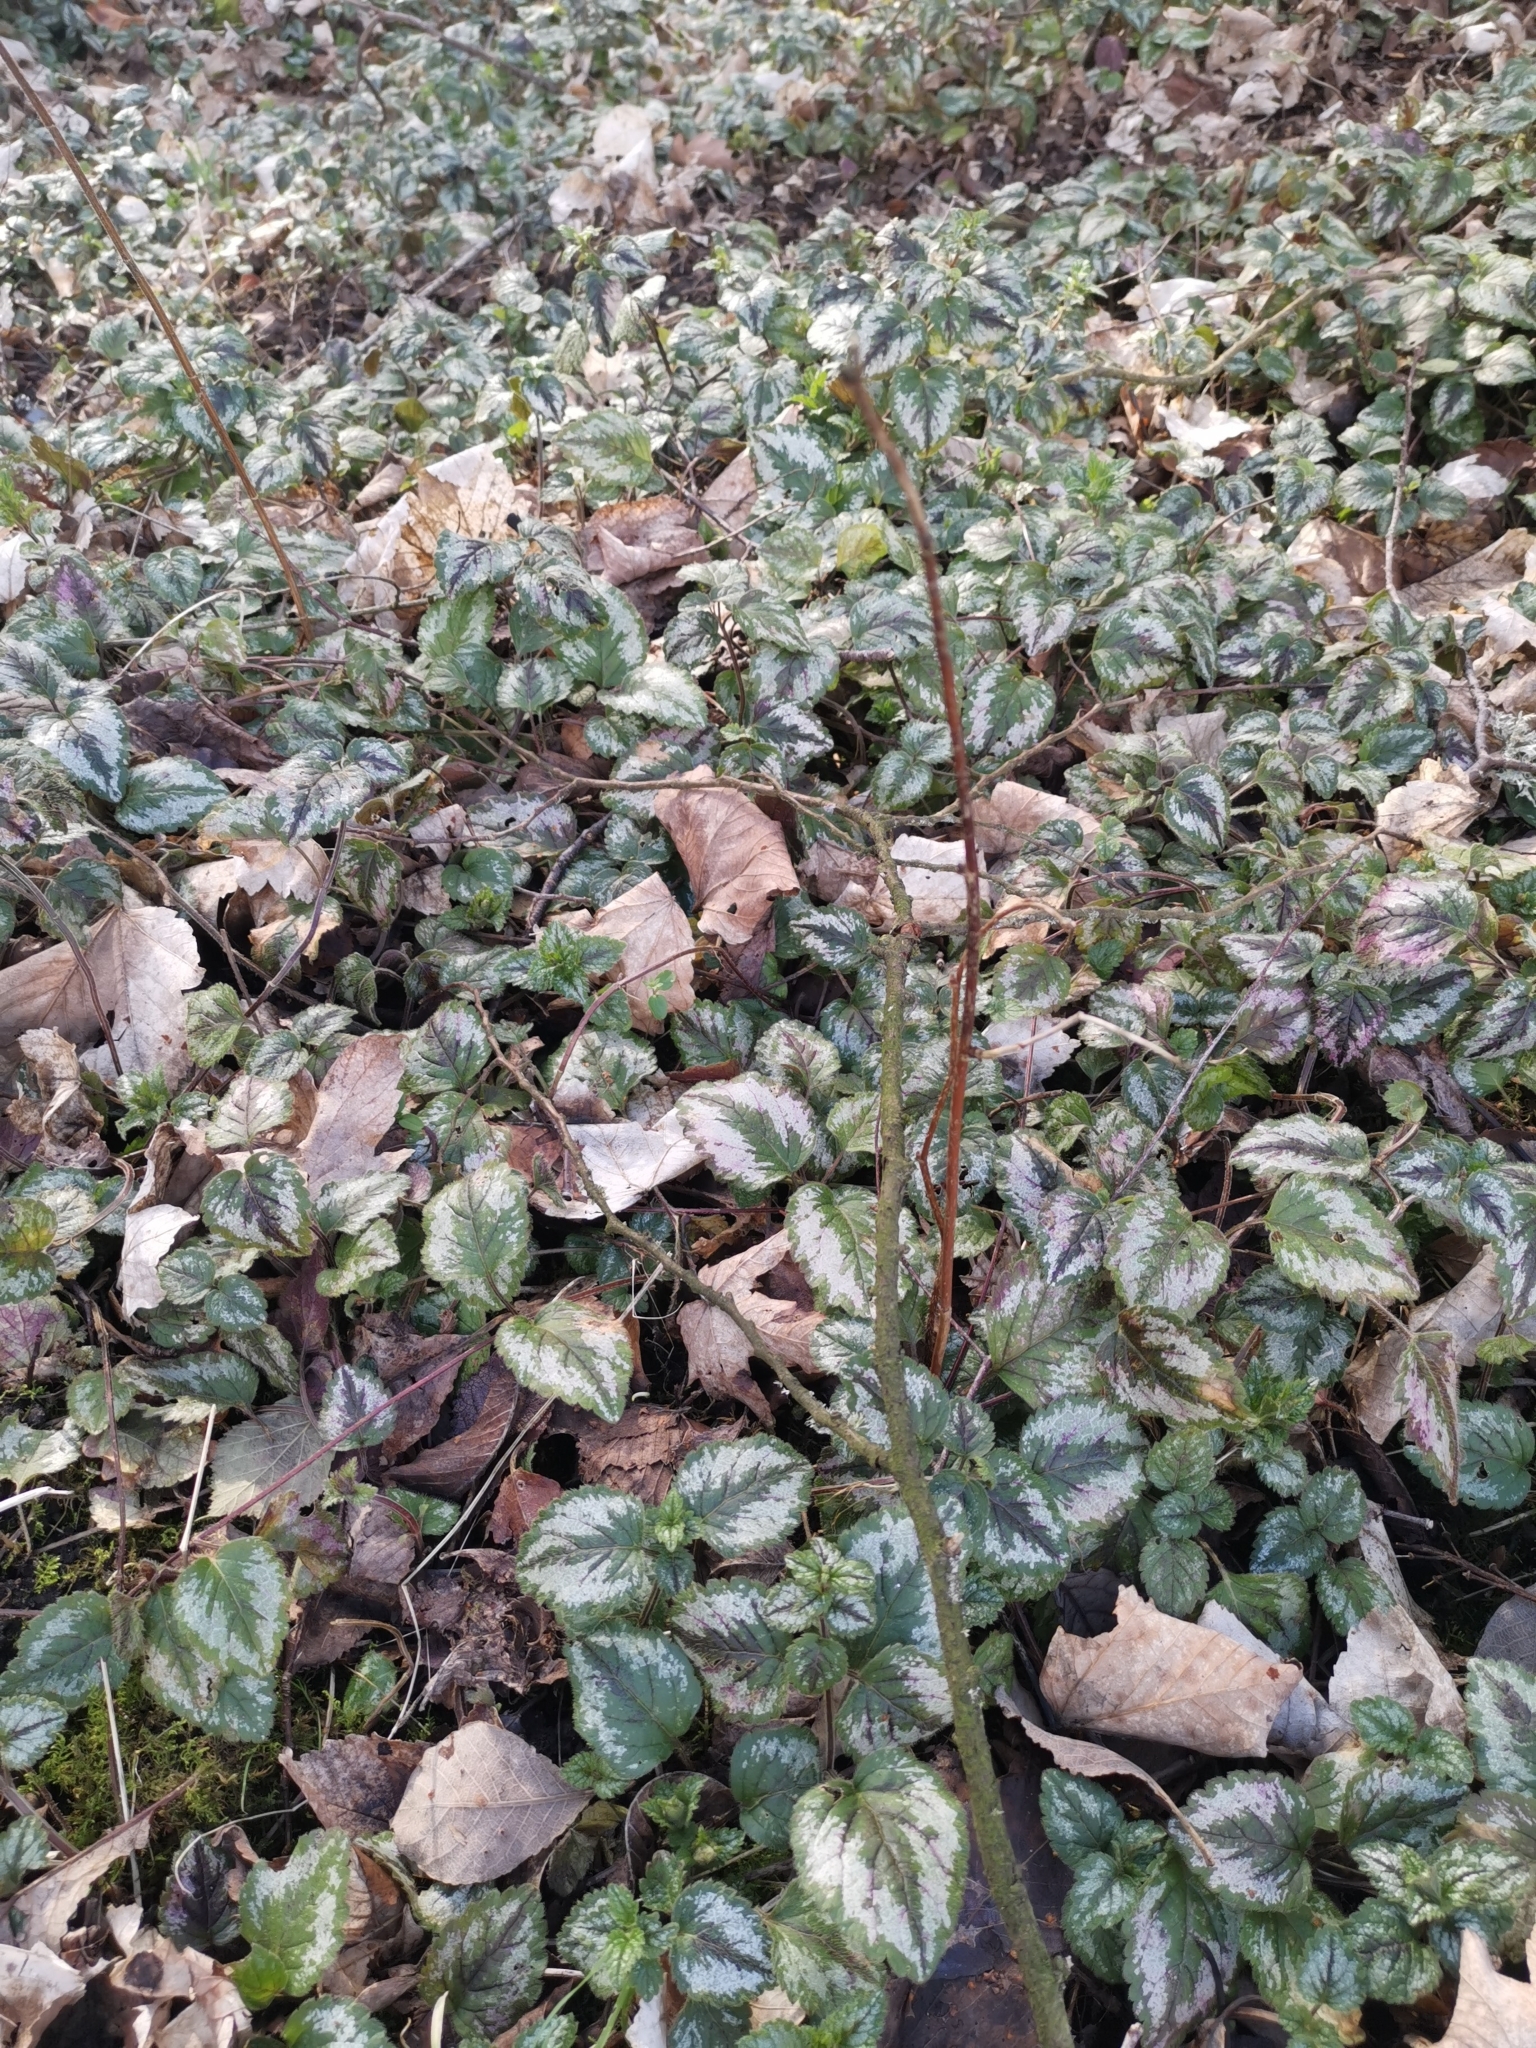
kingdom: Plantae
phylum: Tracheophyta
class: Magnoliopsida
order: Lamiales
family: Lamiaceae
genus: Lamium
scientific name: Lamium galeobdolon
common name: Yellow archangel
